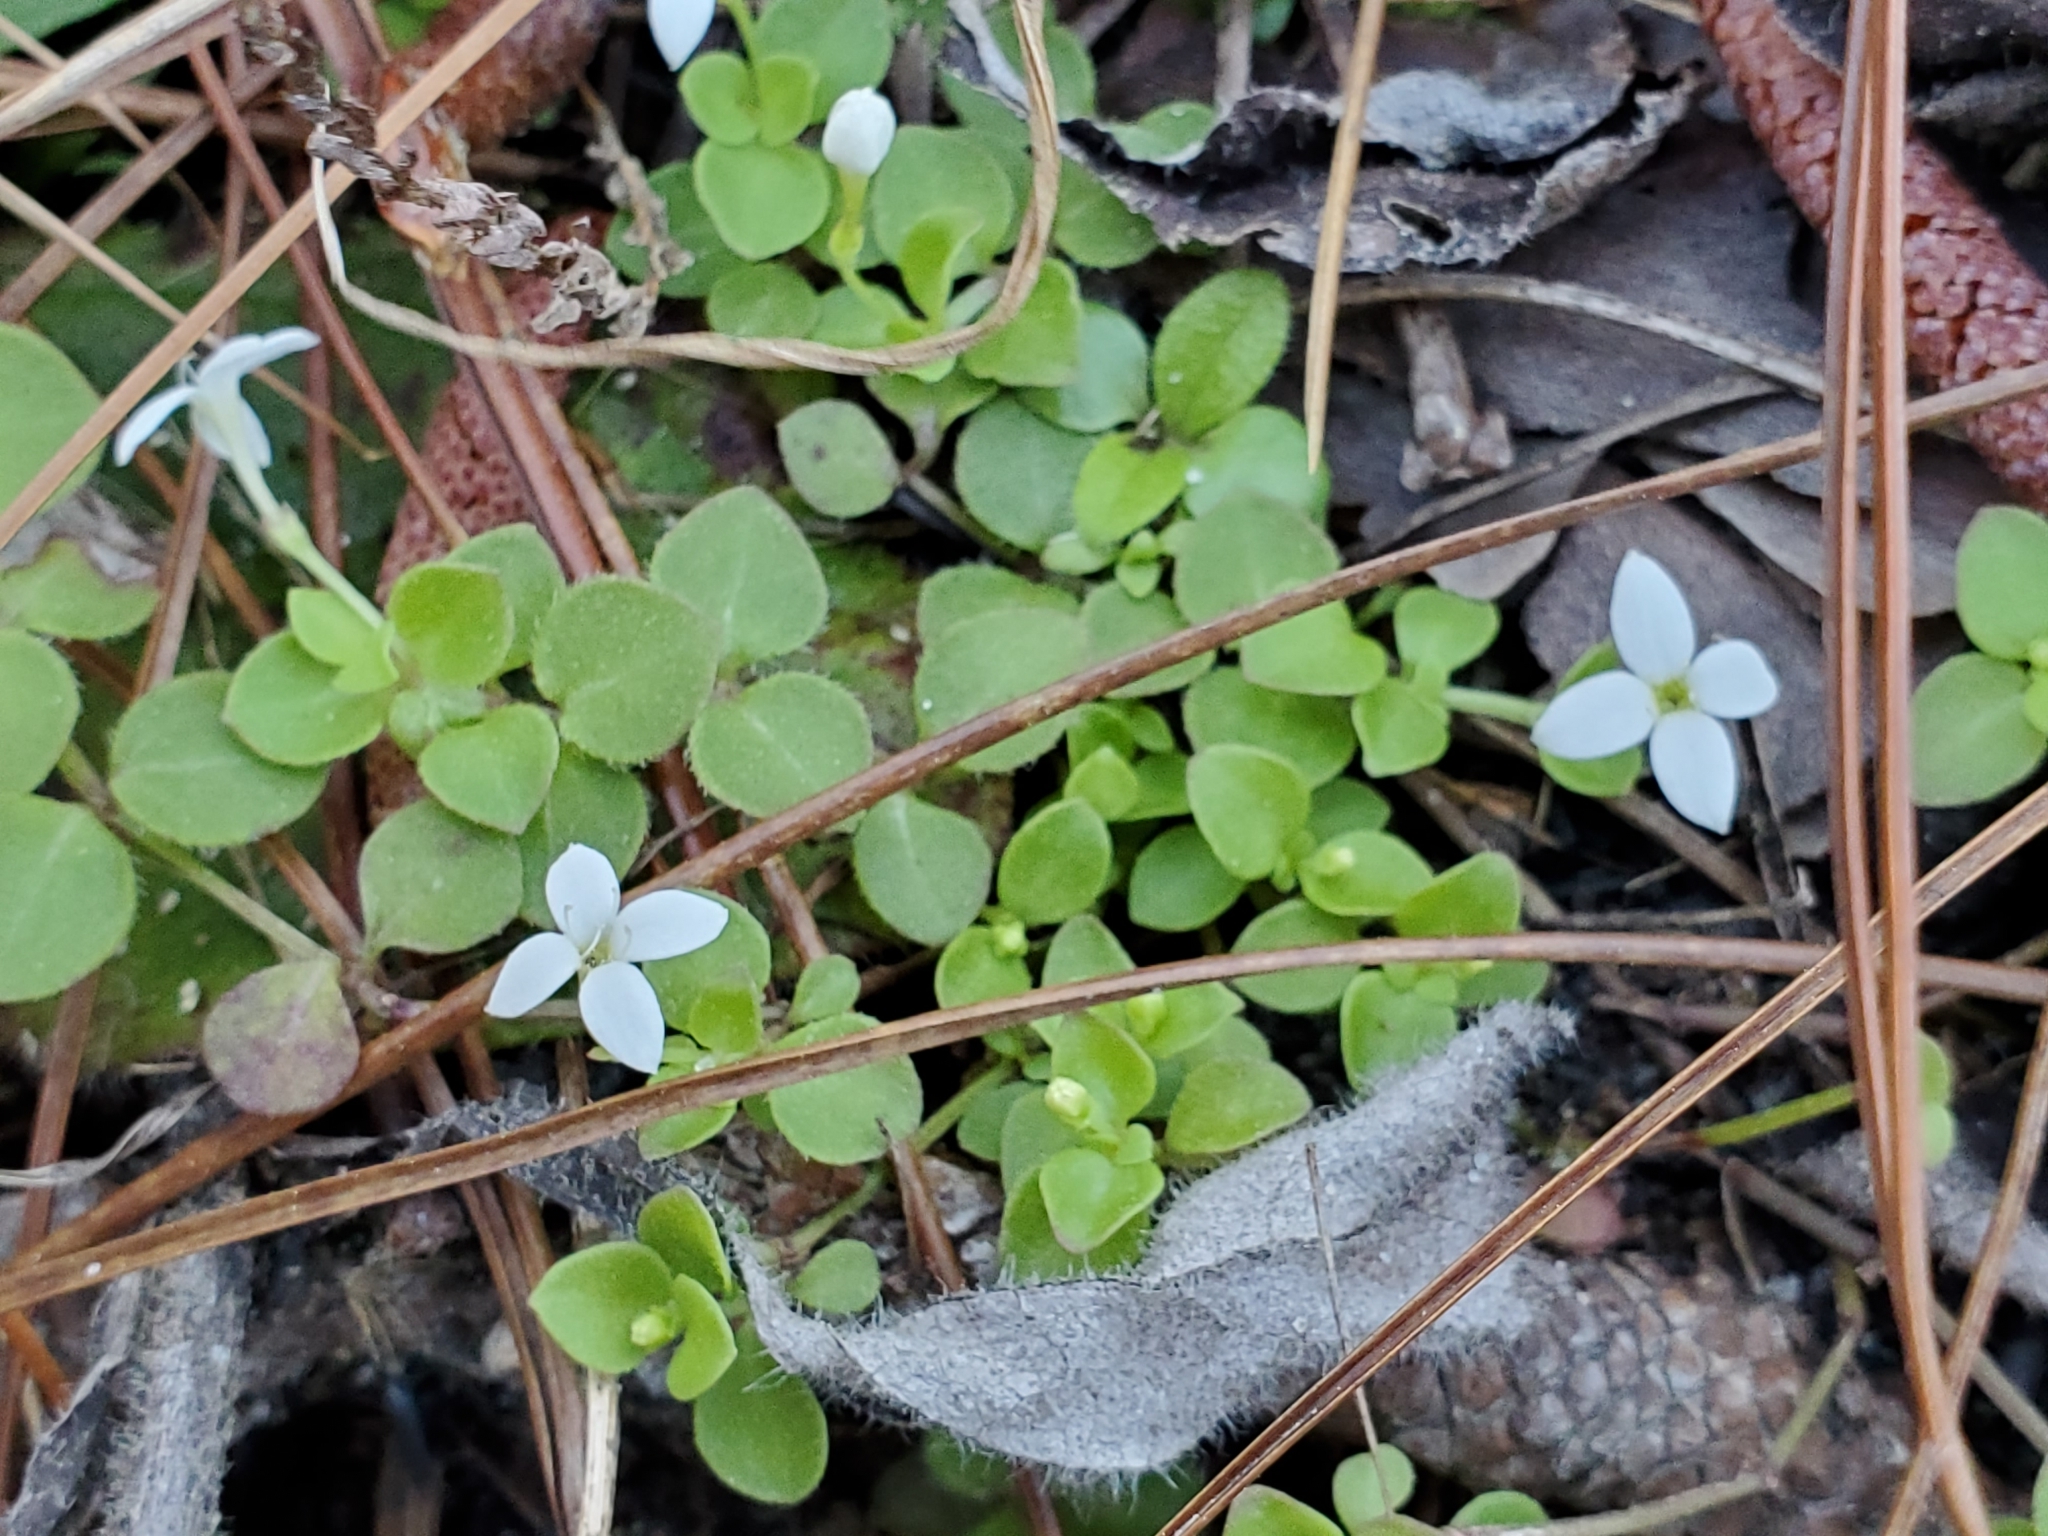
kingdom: Plantae
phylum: Tracheophyta
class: Magnoliopsida
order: Gentianales
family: Rubiaceae
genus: Houstonia
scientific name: Houstonia procumbens
